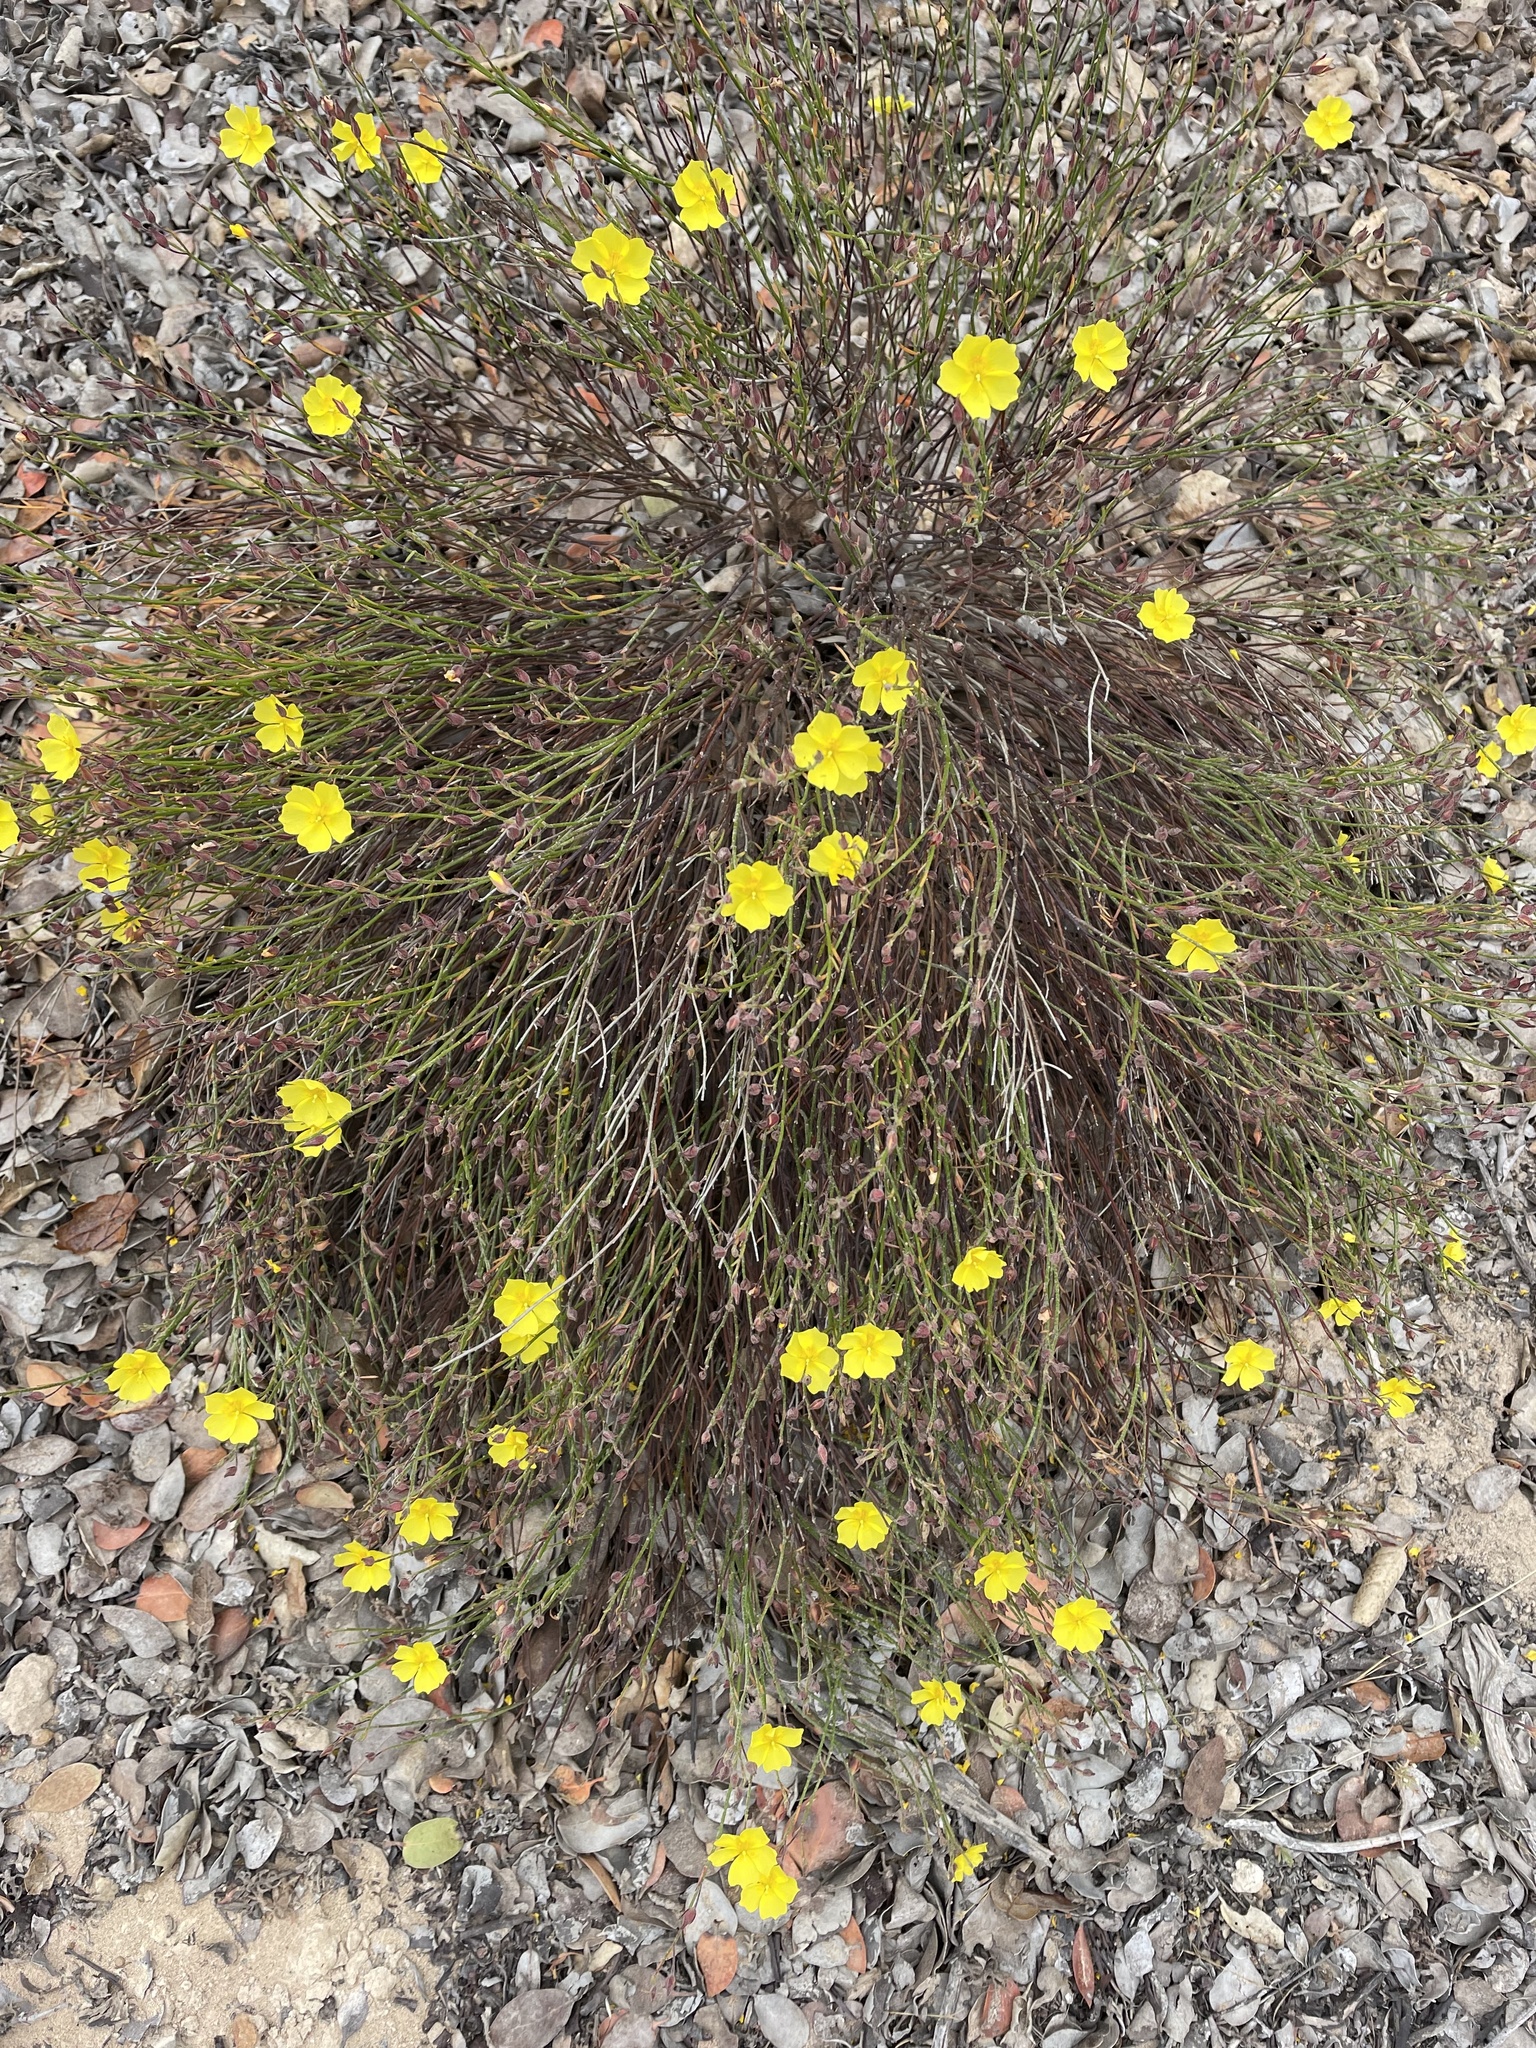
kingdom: Plantae
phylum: Tracheophyta
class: Magnoliopsida
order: Malvales
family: Cistaceae
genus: Crocanthemum
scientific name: Crocanthemum scoparium
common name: Broom-rose
